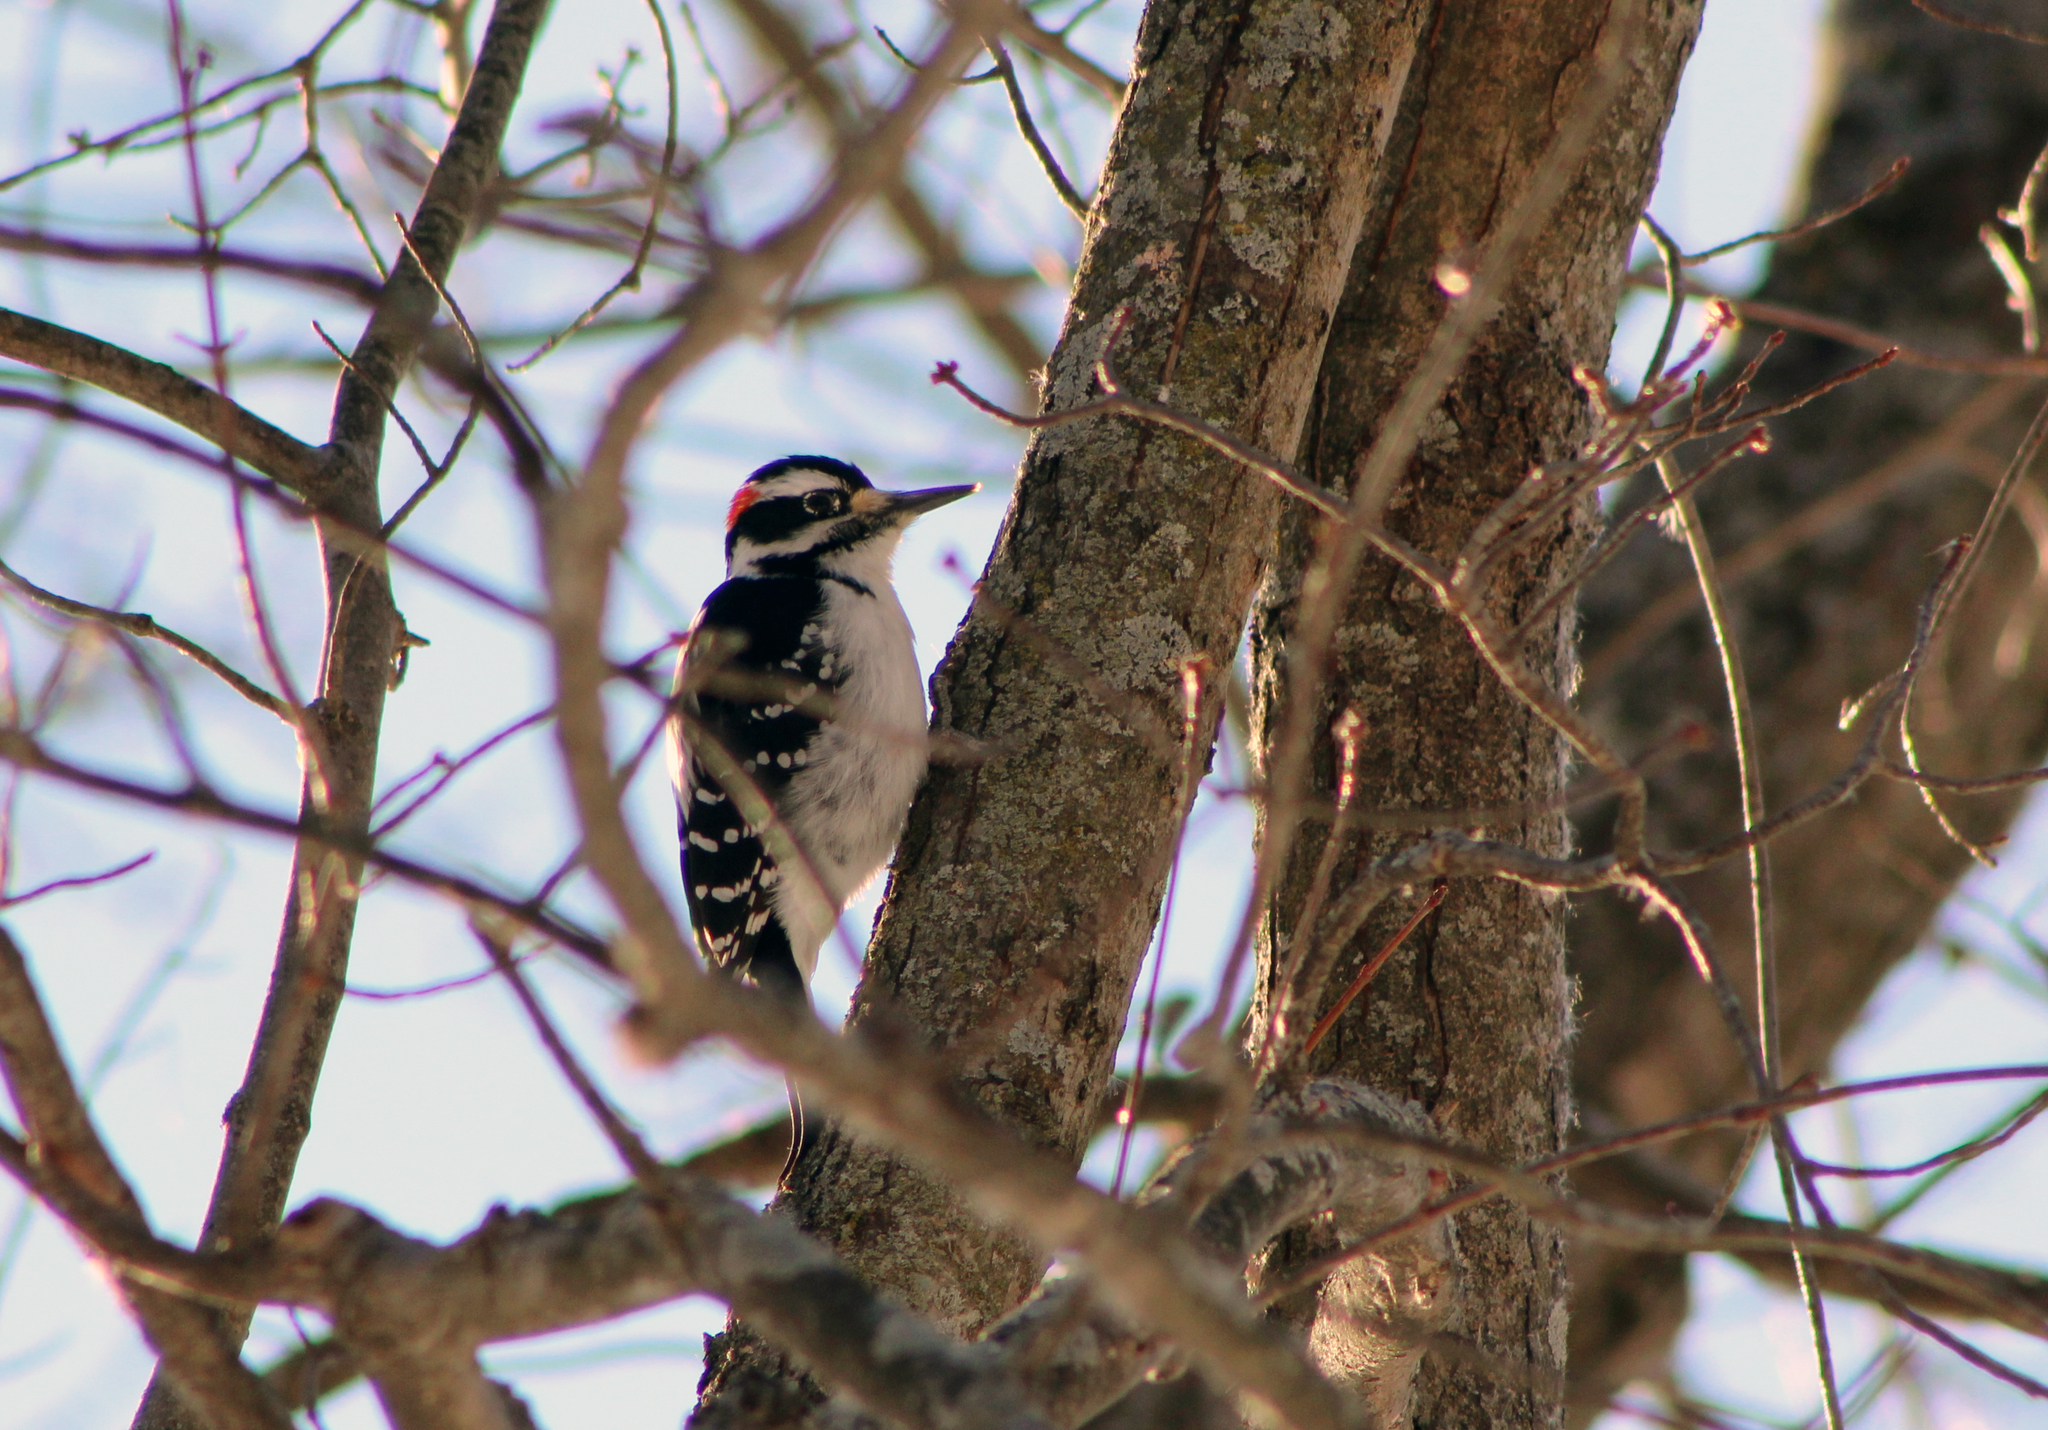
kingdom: Animalia
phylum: Chordata
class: Aves
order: Piciformes
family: Picidae
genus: Leuconotopicus
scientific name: Leuconotopicus villosus
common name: Hairy woodpecker
